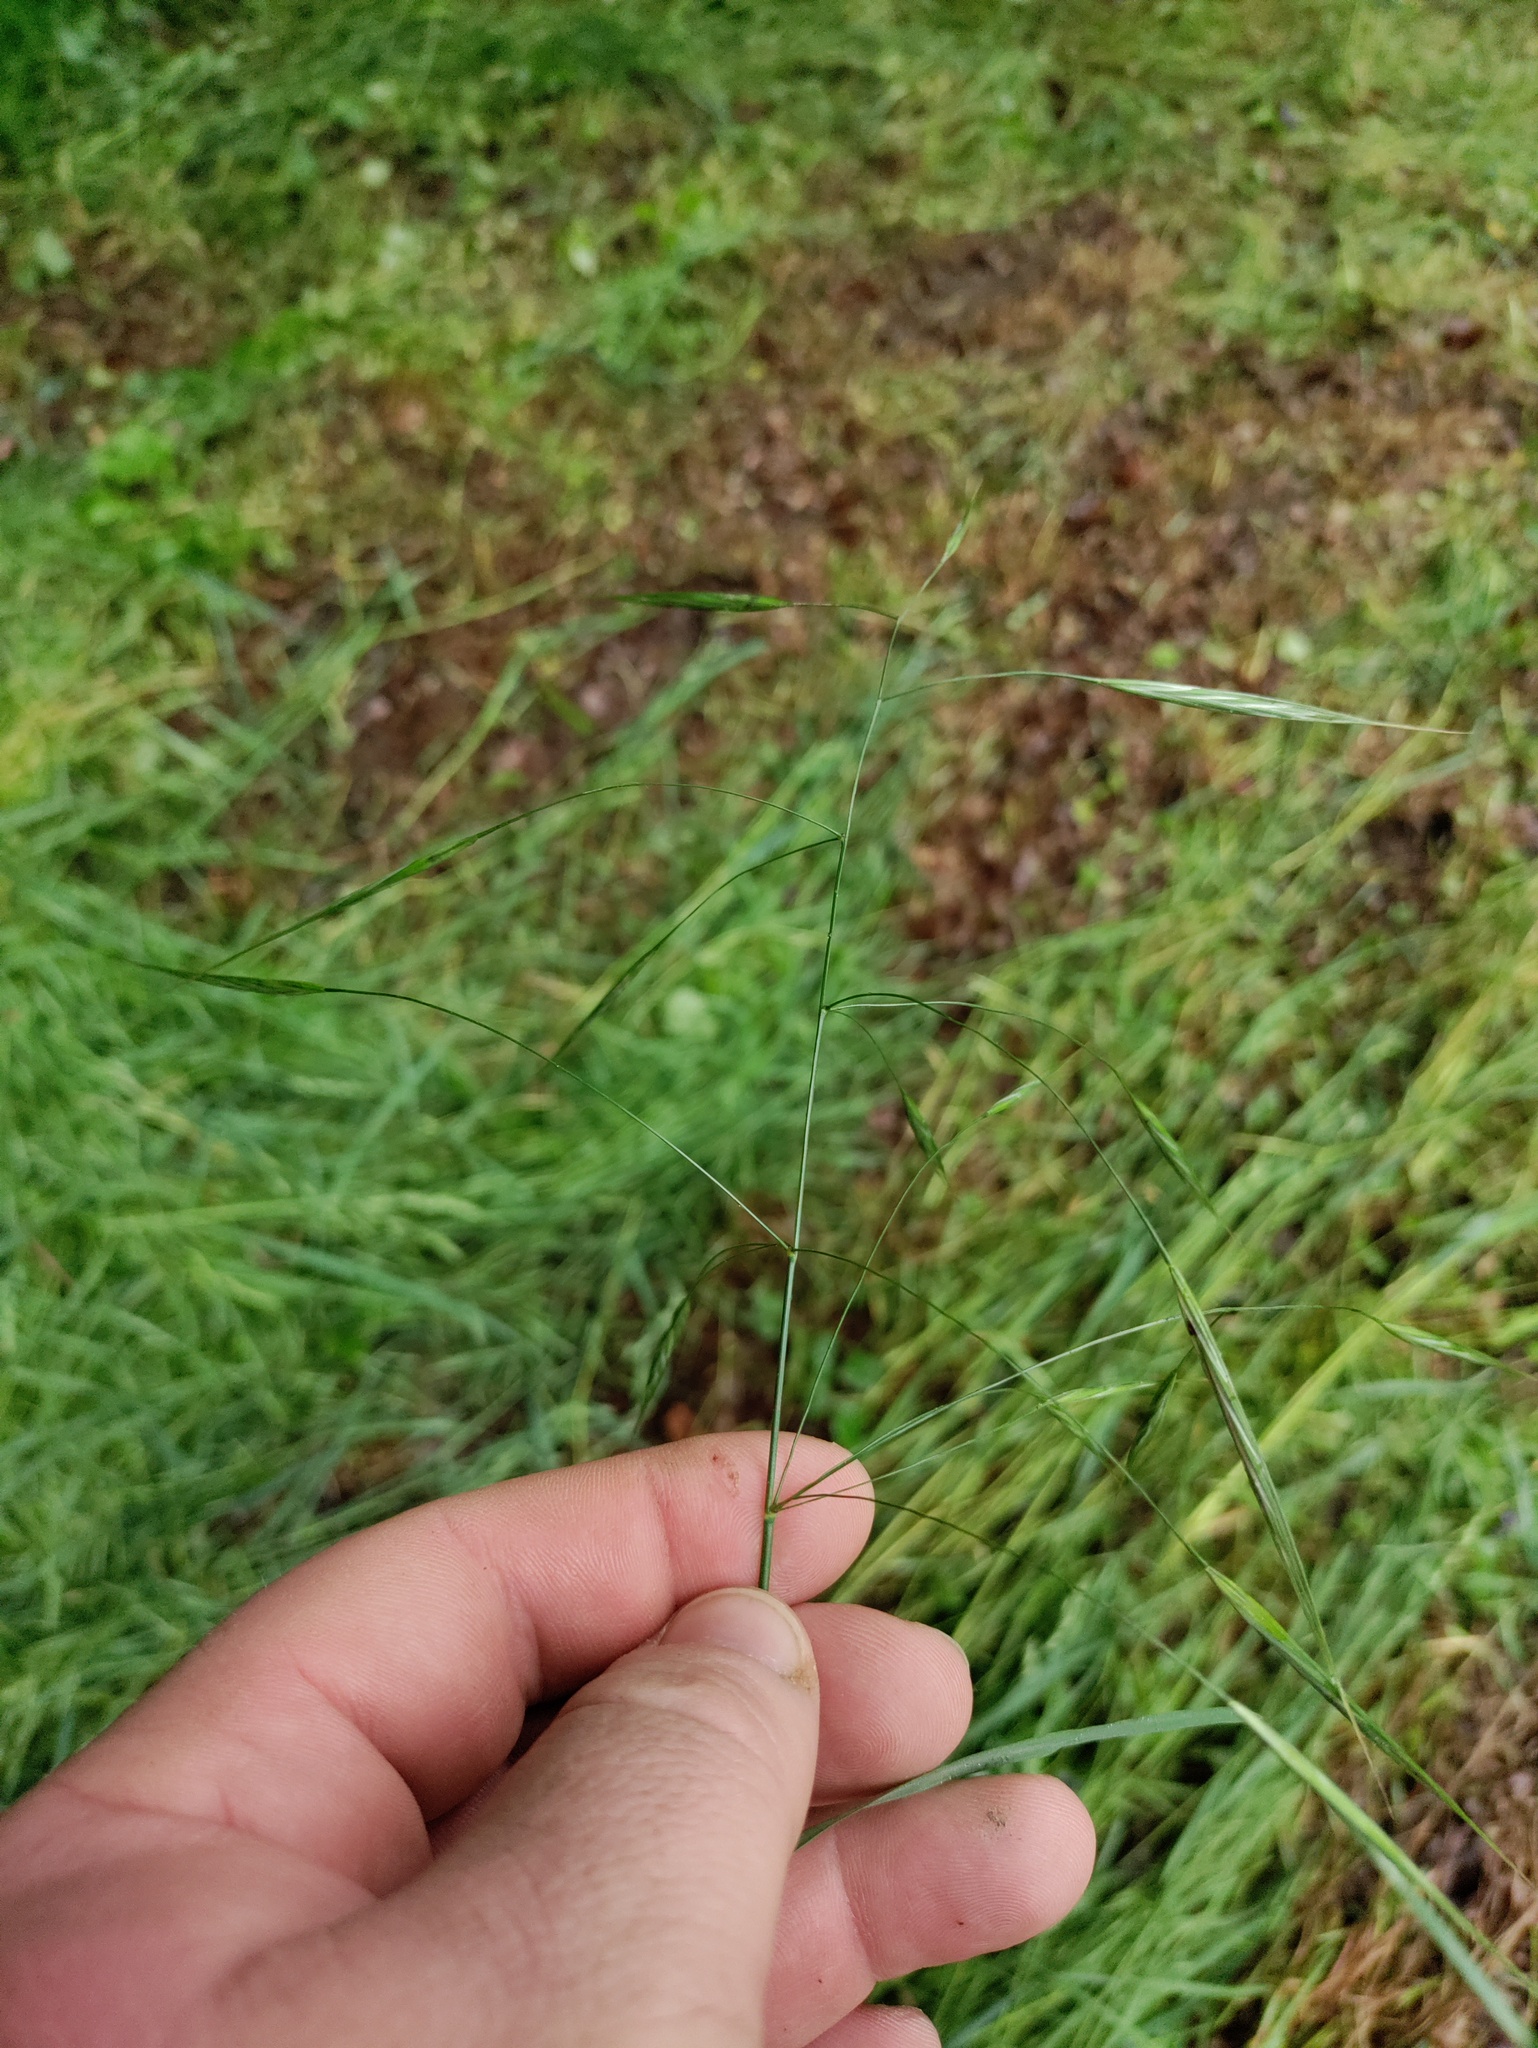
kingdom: Plantae
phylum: Tracheophyta
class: Liliopsida
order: Poales
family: Poaceae
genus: Bromus
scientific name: Bromus sterilis
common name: Poverty brome
